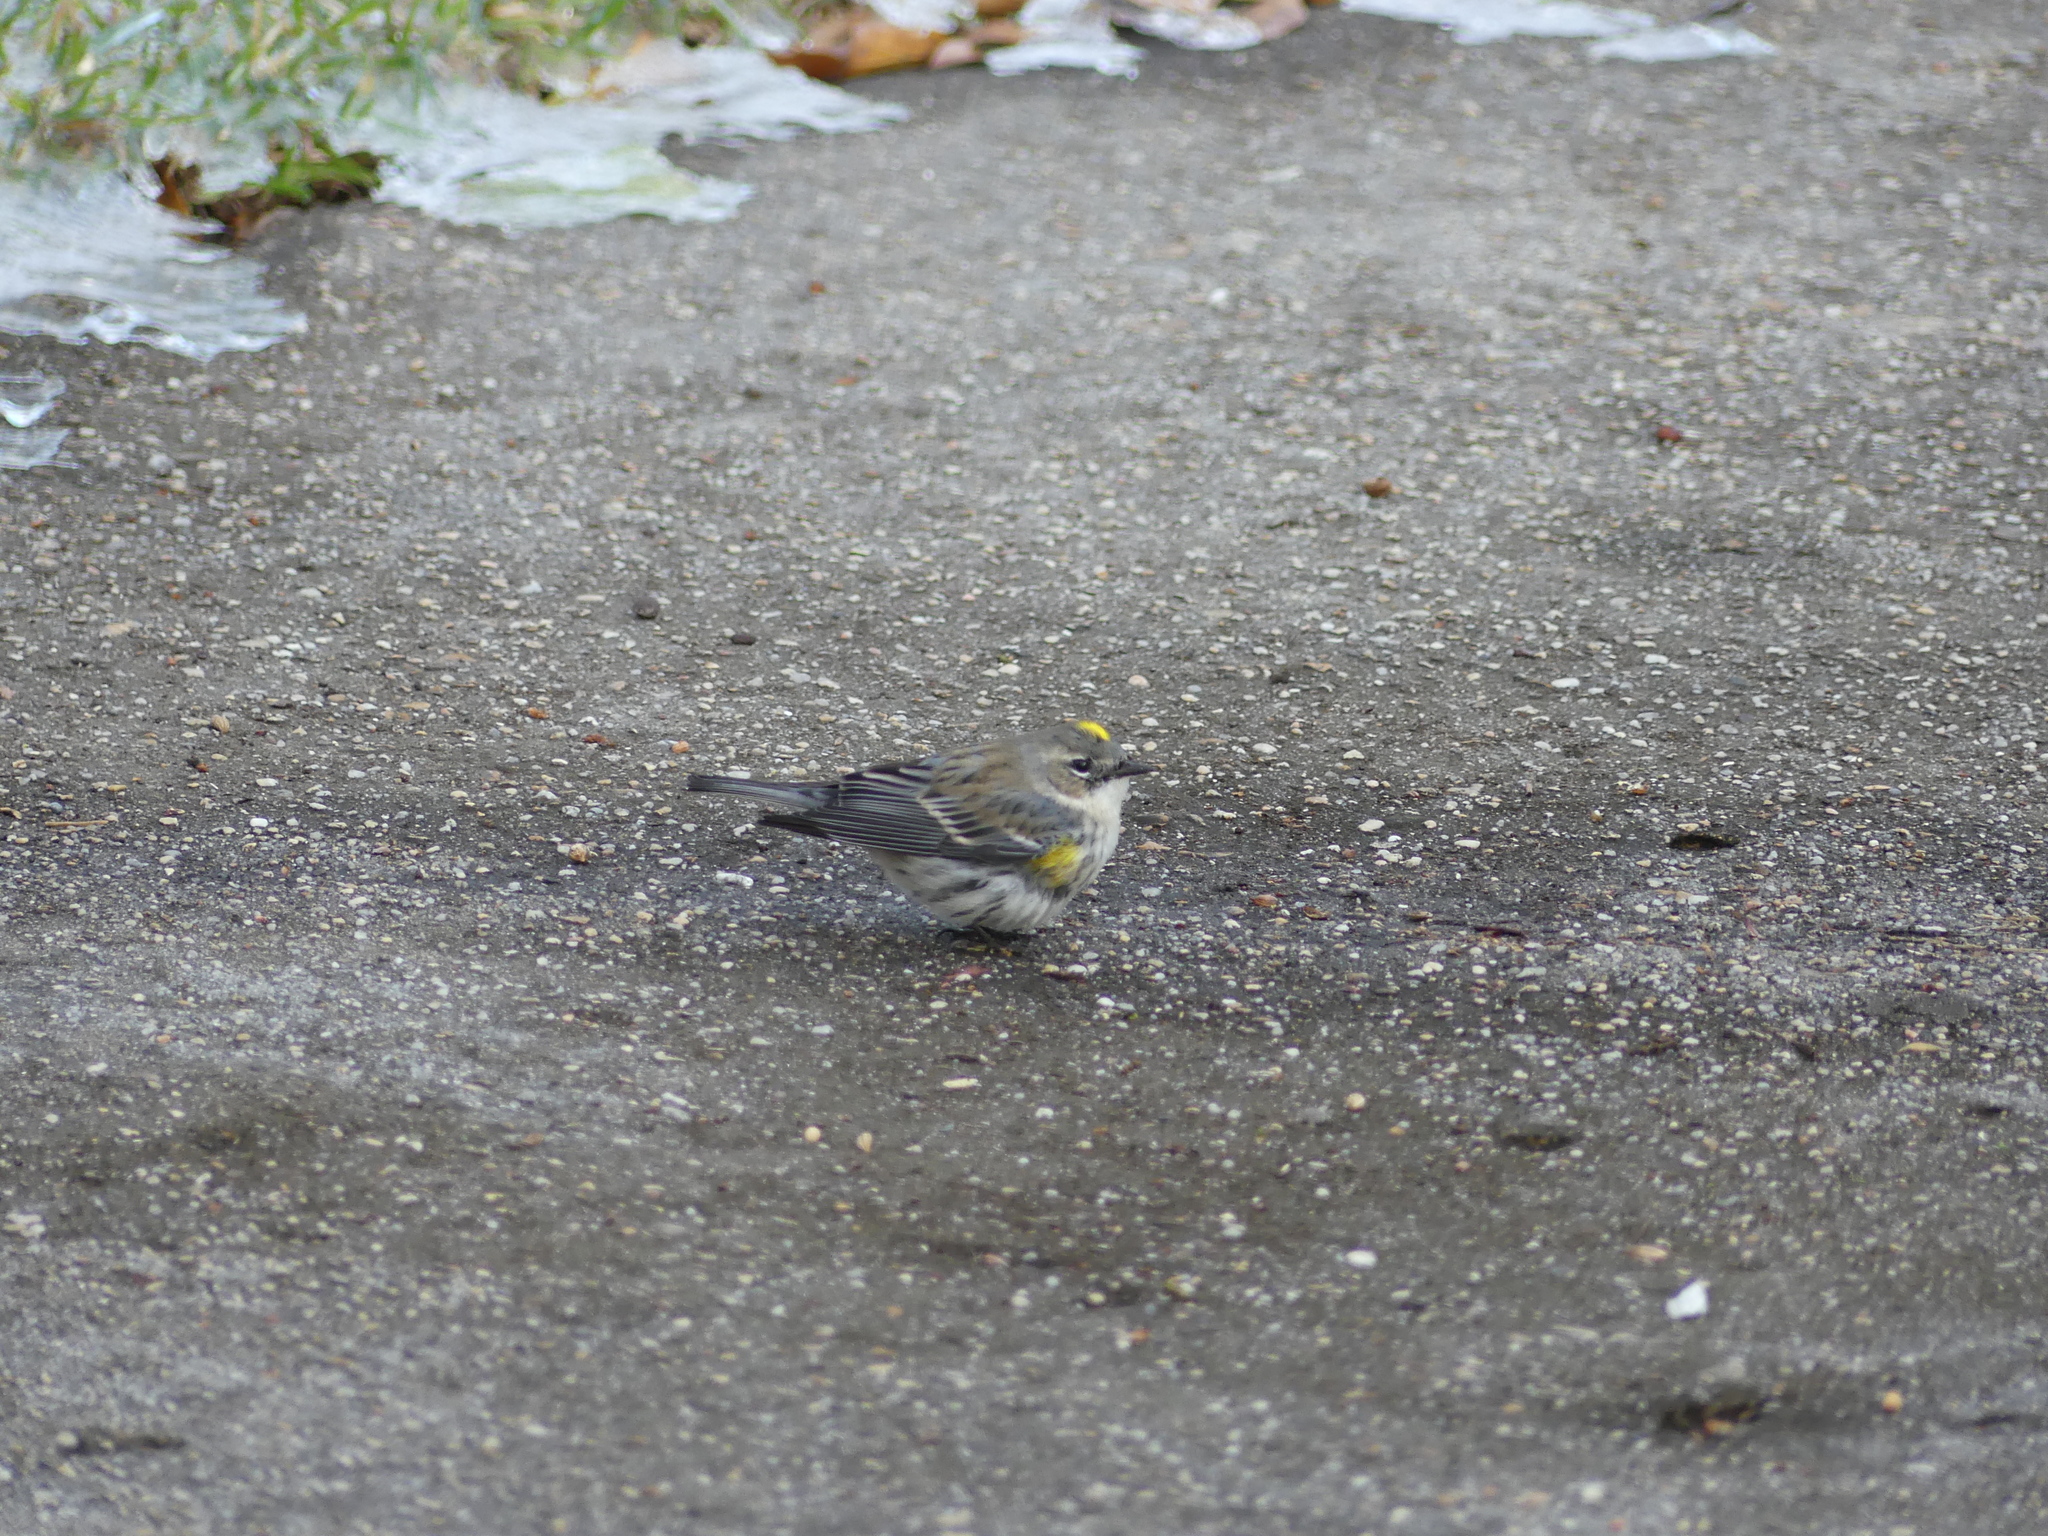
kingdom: Animalia
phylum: Chordata
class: Aves
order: Passeriformes
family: Parulidae
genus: Setophaga
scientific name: Setophaga coronata
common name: Myrtle warbler
